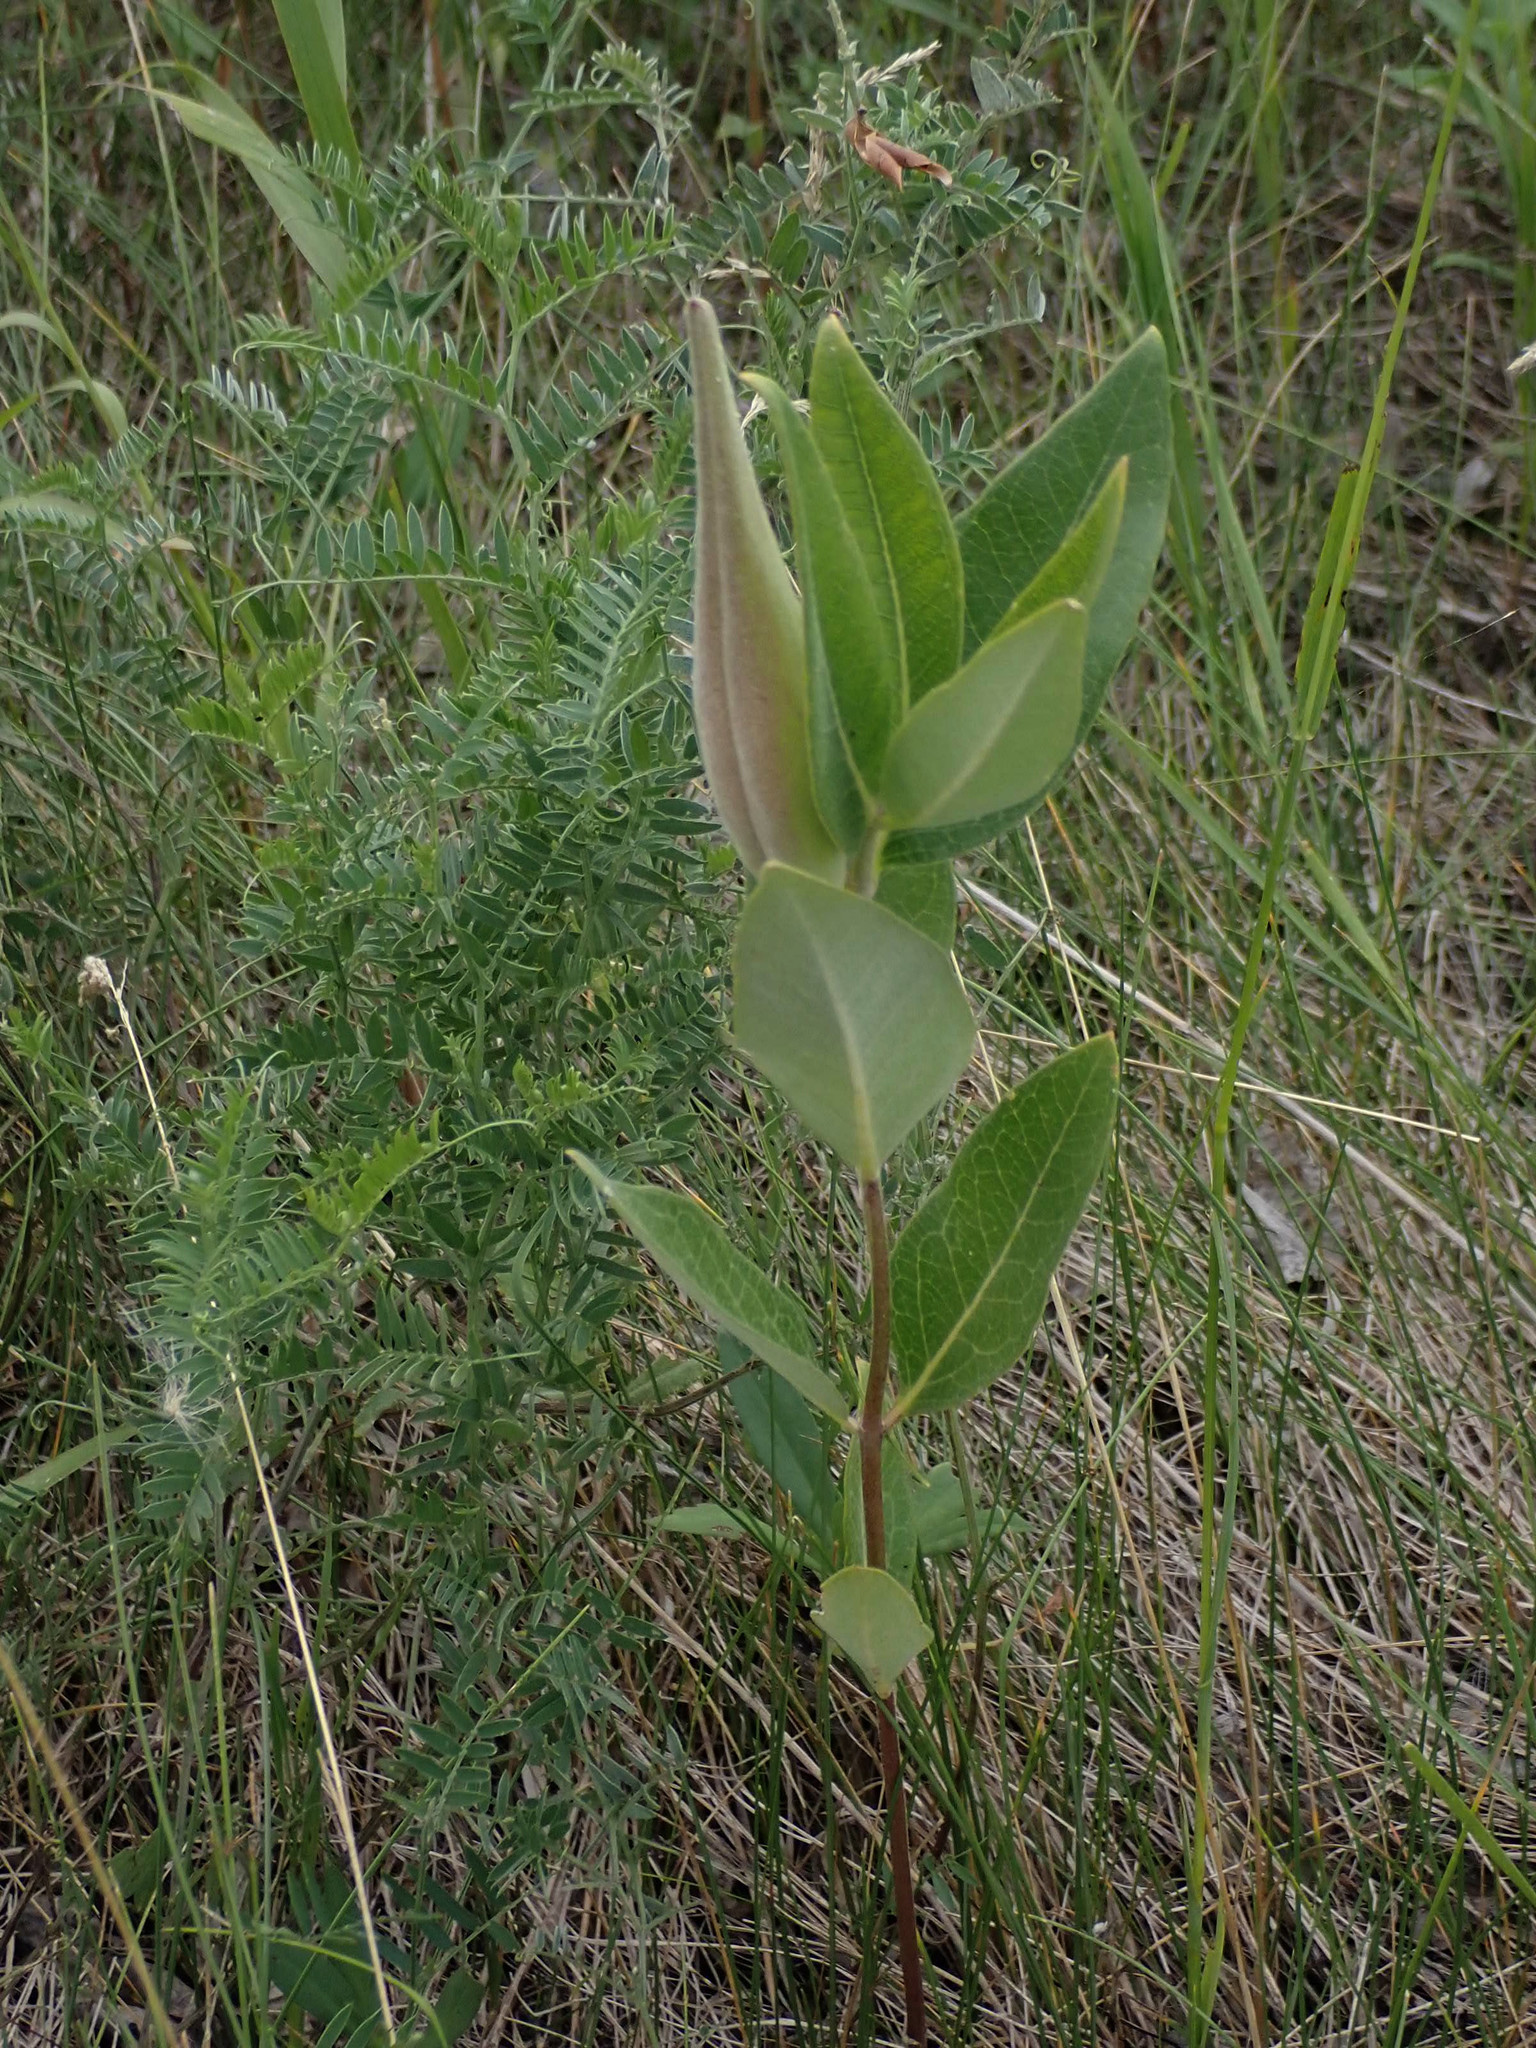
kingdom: Plantae
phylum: Tracheophyta
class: Magnoliopsida
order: Gentianales
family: Apocynaceae
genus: Asclepias
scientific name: Asclepias ovalifolia
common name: Dwarf milkweed
